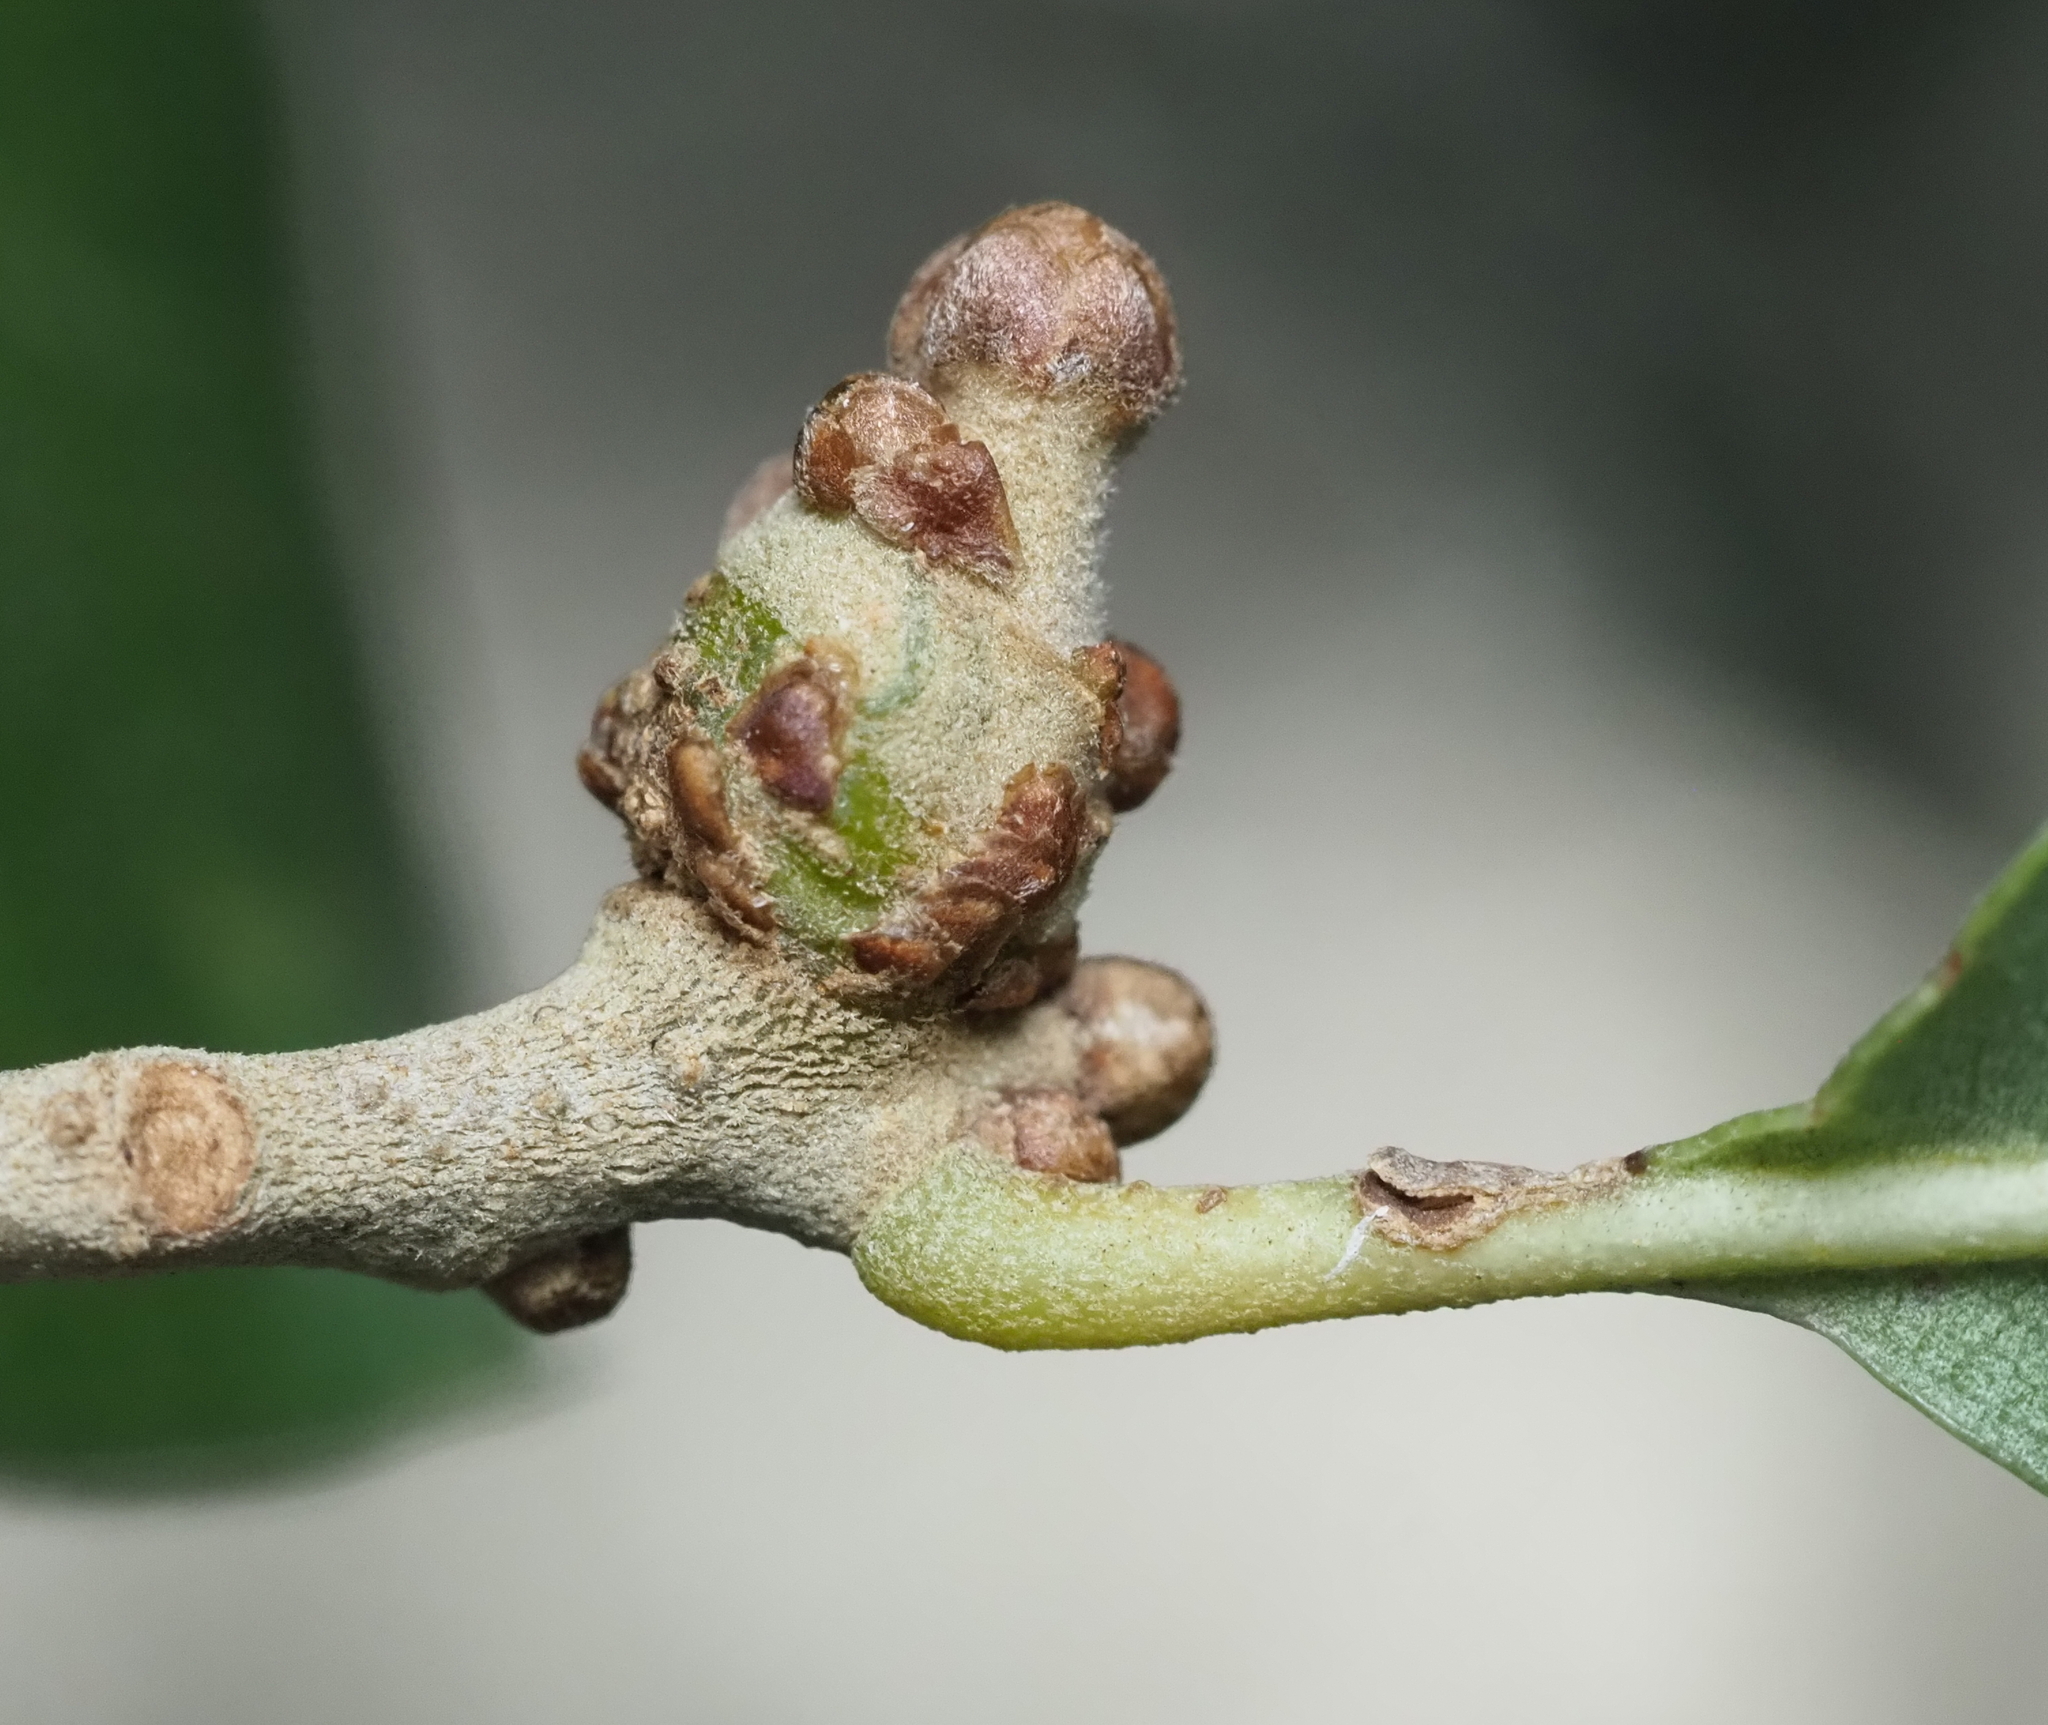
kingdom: Animalia
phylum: Arthropoda
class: Insecta
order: Hymenoptera
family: Cynipidae
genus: Callirhytis
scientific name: Callirhytis
